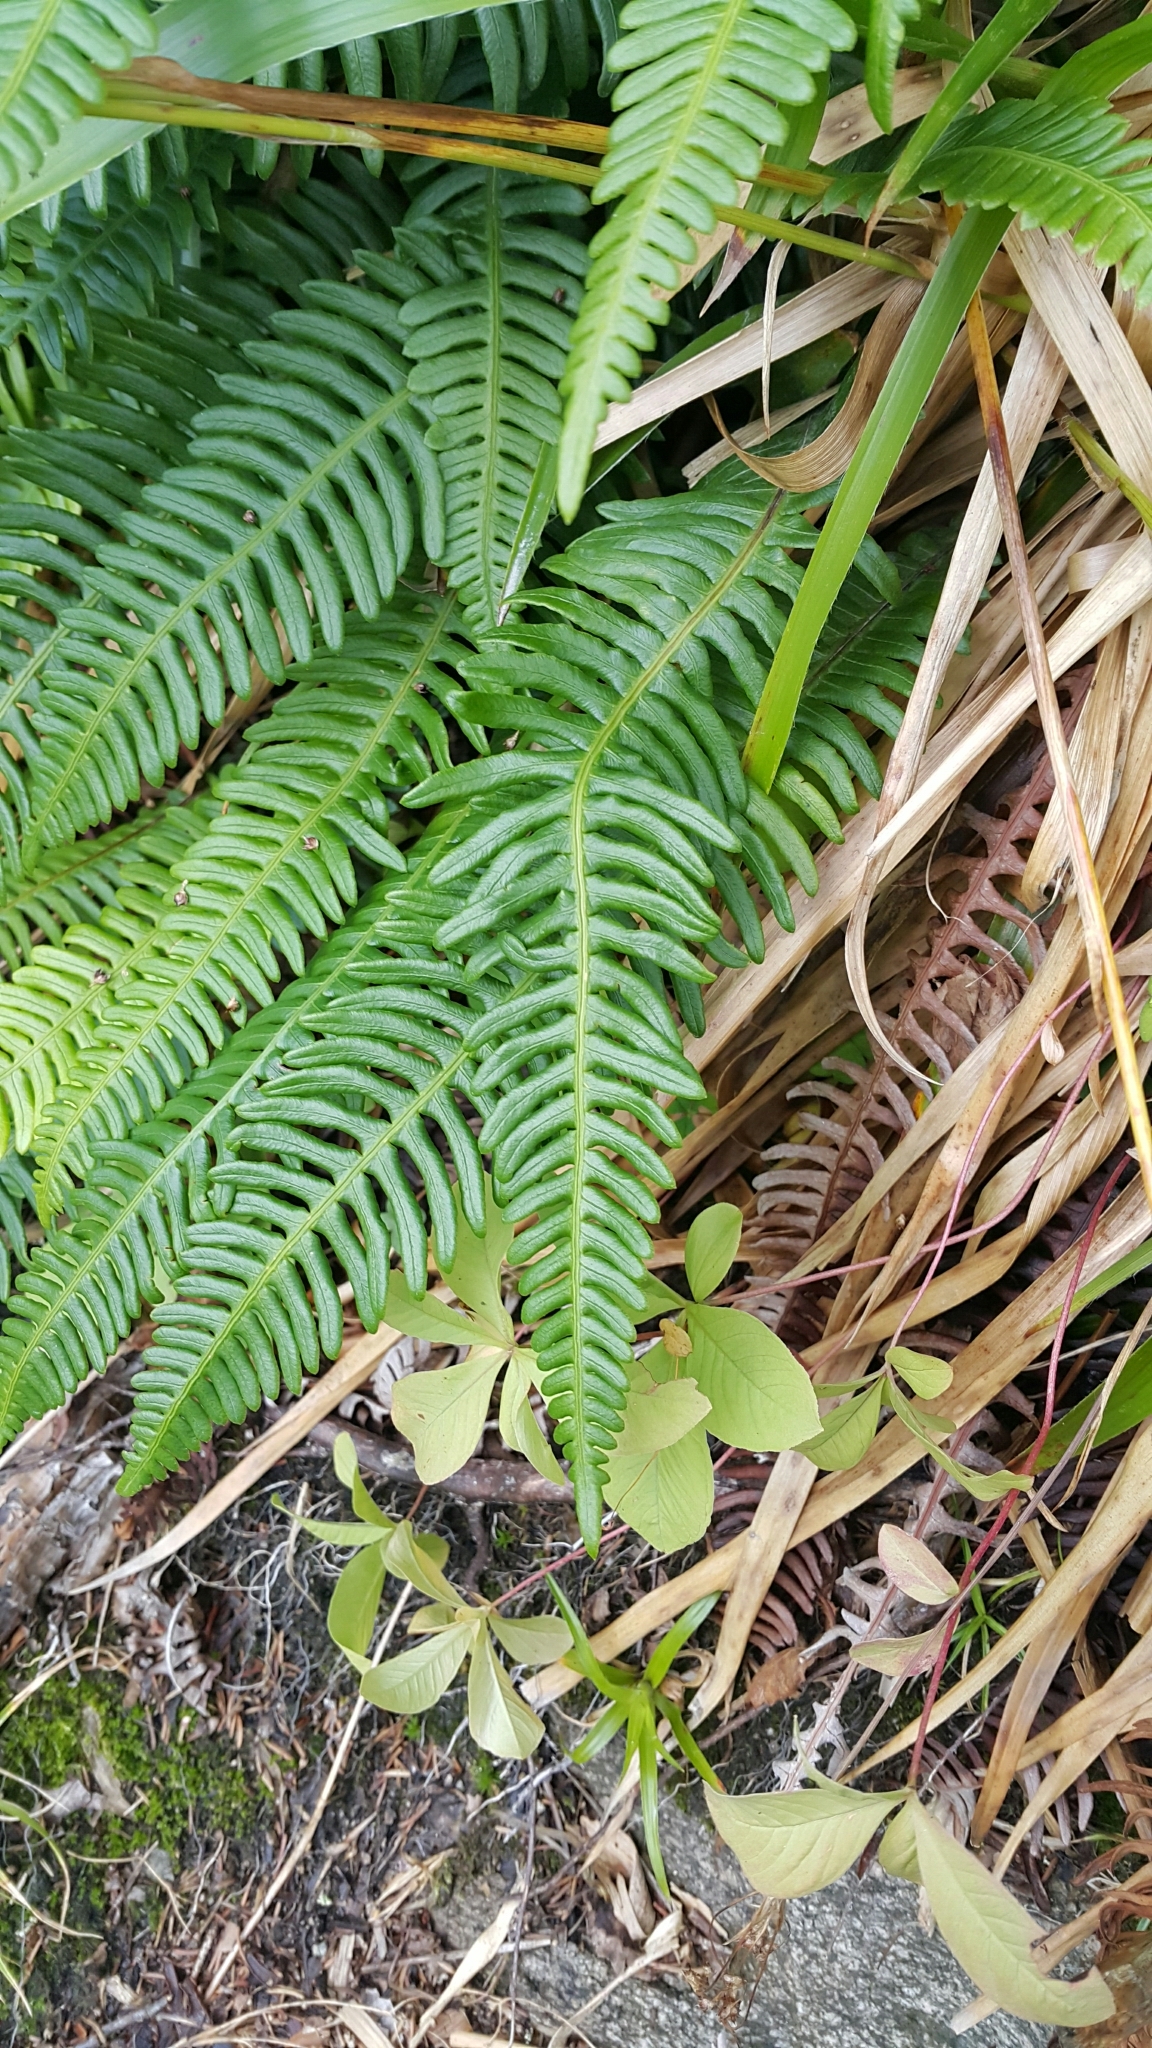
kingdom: Plantae
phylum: Tracheophyta
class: Polypodiopsida
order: Polypodiales
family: Blechnaceae
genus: Struthiopteris
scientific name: Struthiopteris spicant
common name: Deer fern
